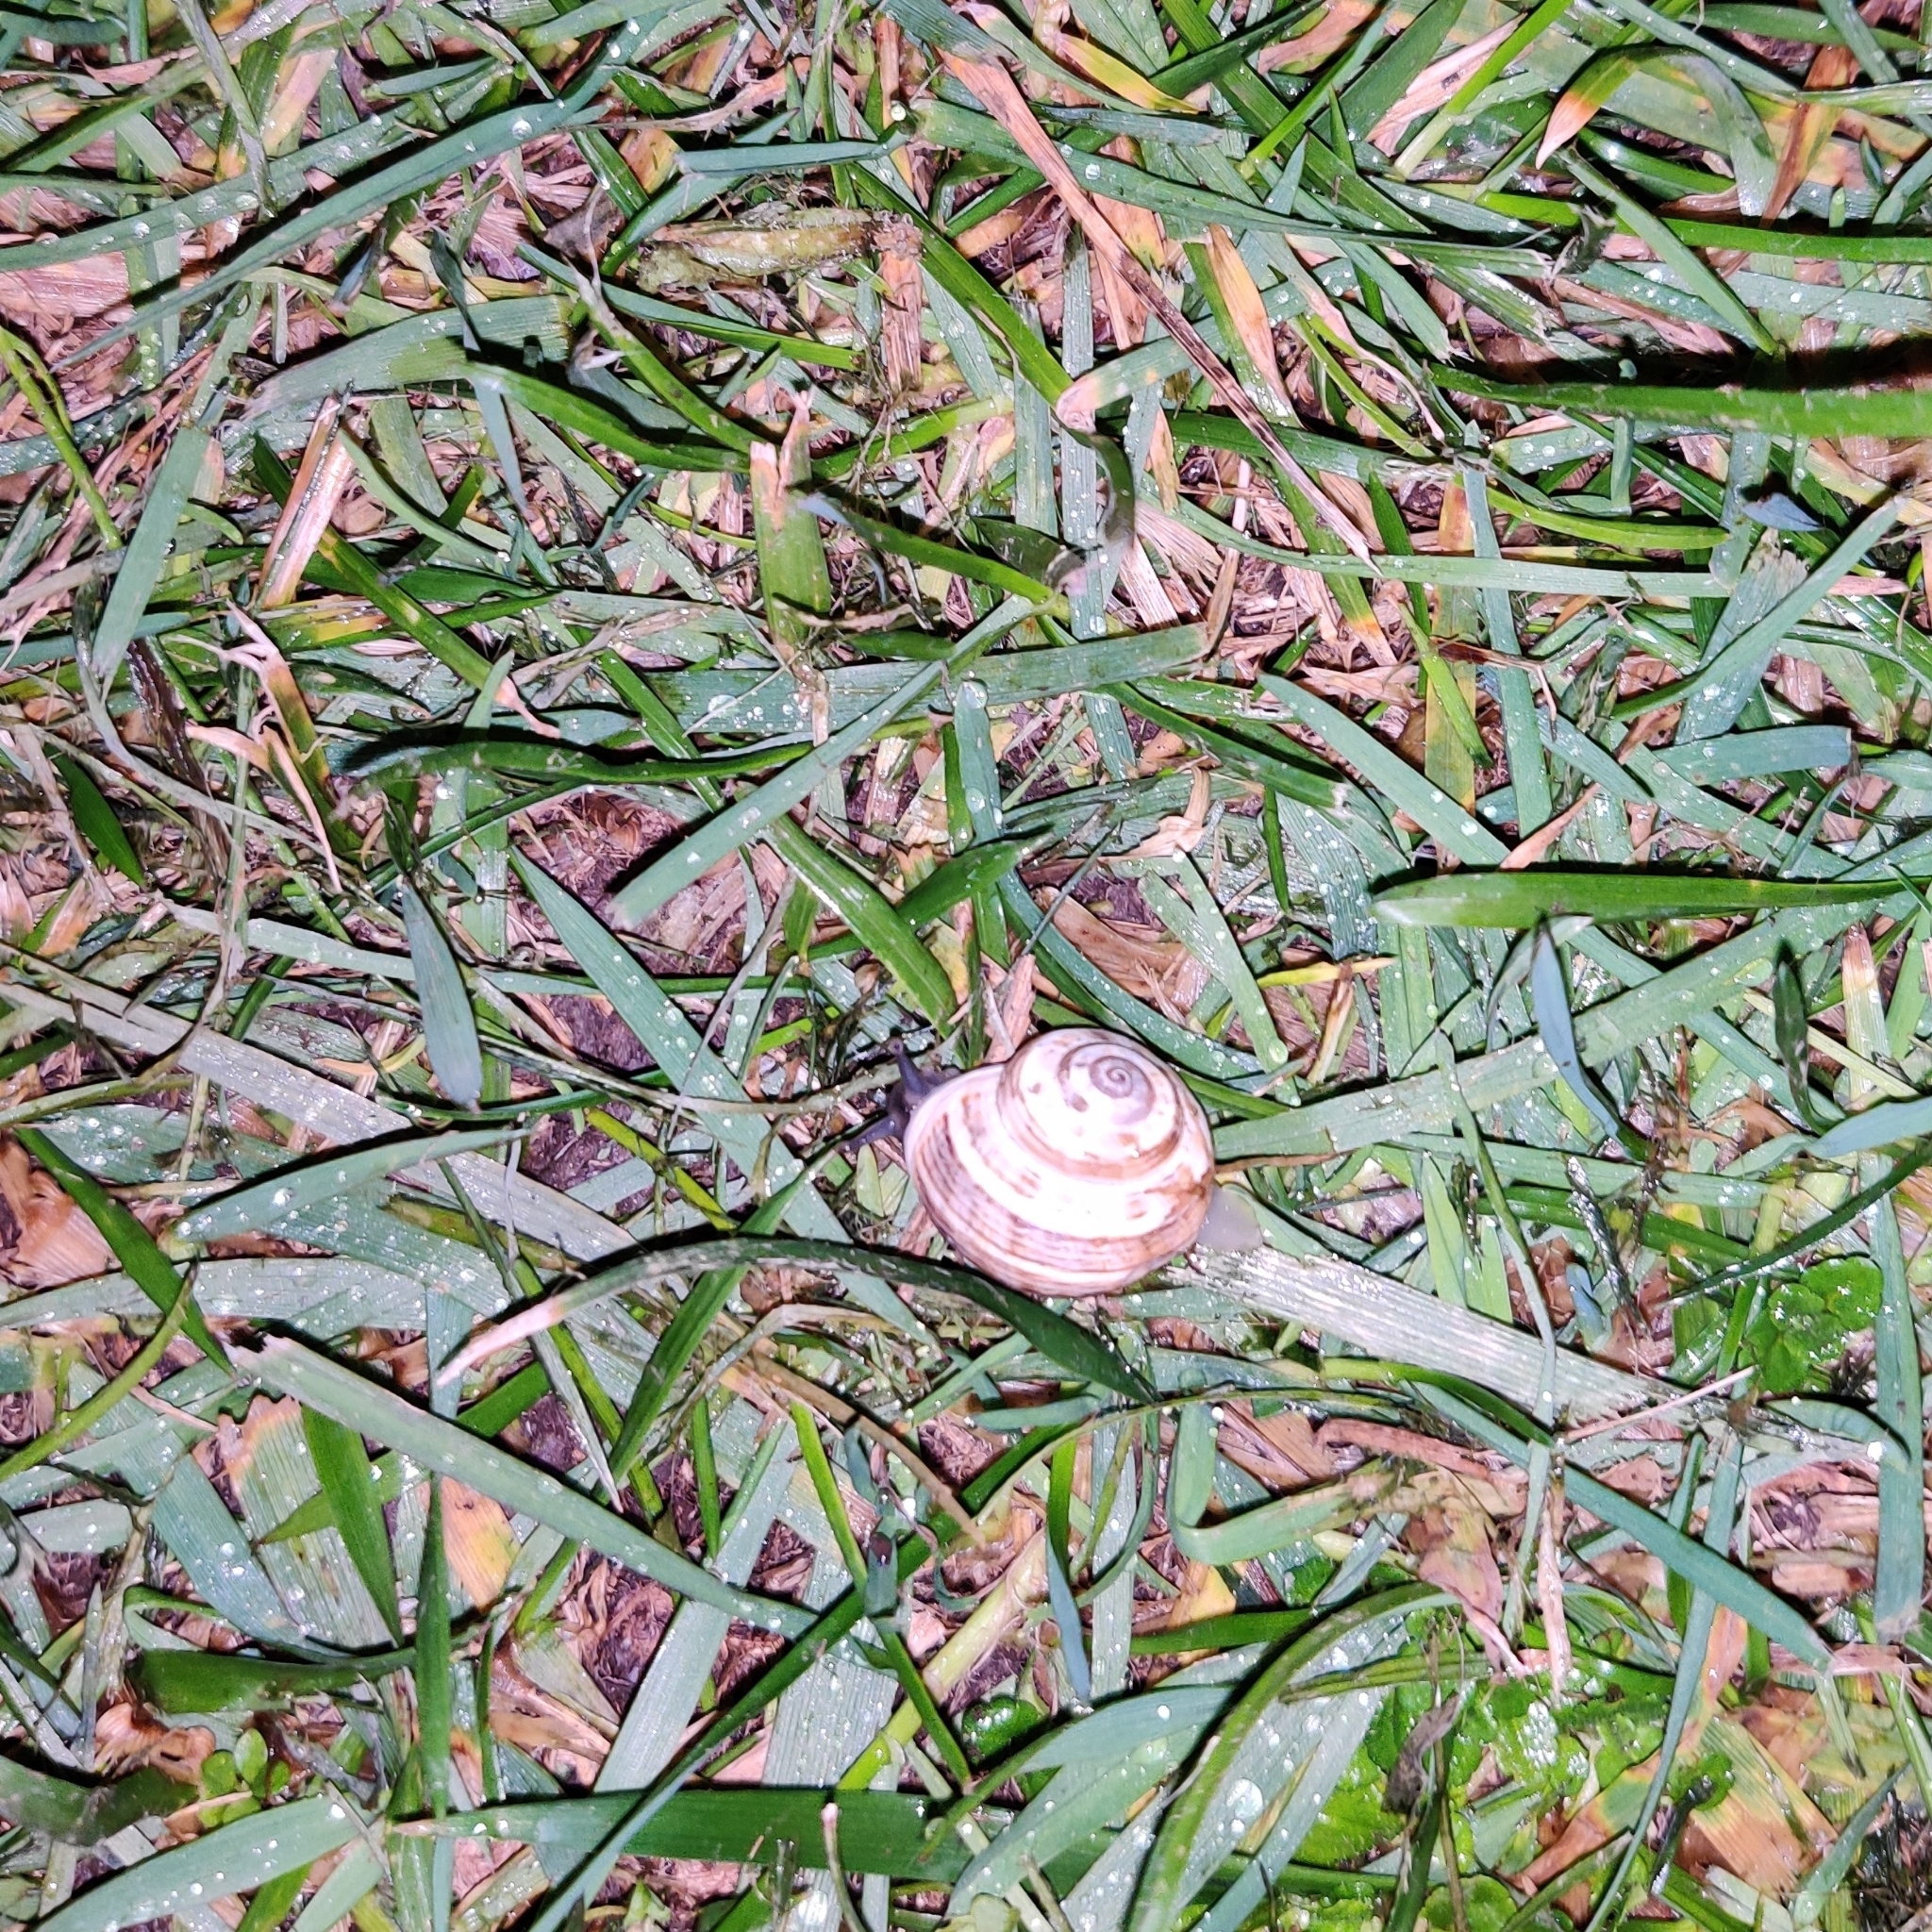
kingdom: Animalia
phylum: Mollusca
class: Gastropoda
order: Stylommatophora
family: Helicidae
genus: Theba
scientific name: Theba pisana
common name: White snail
